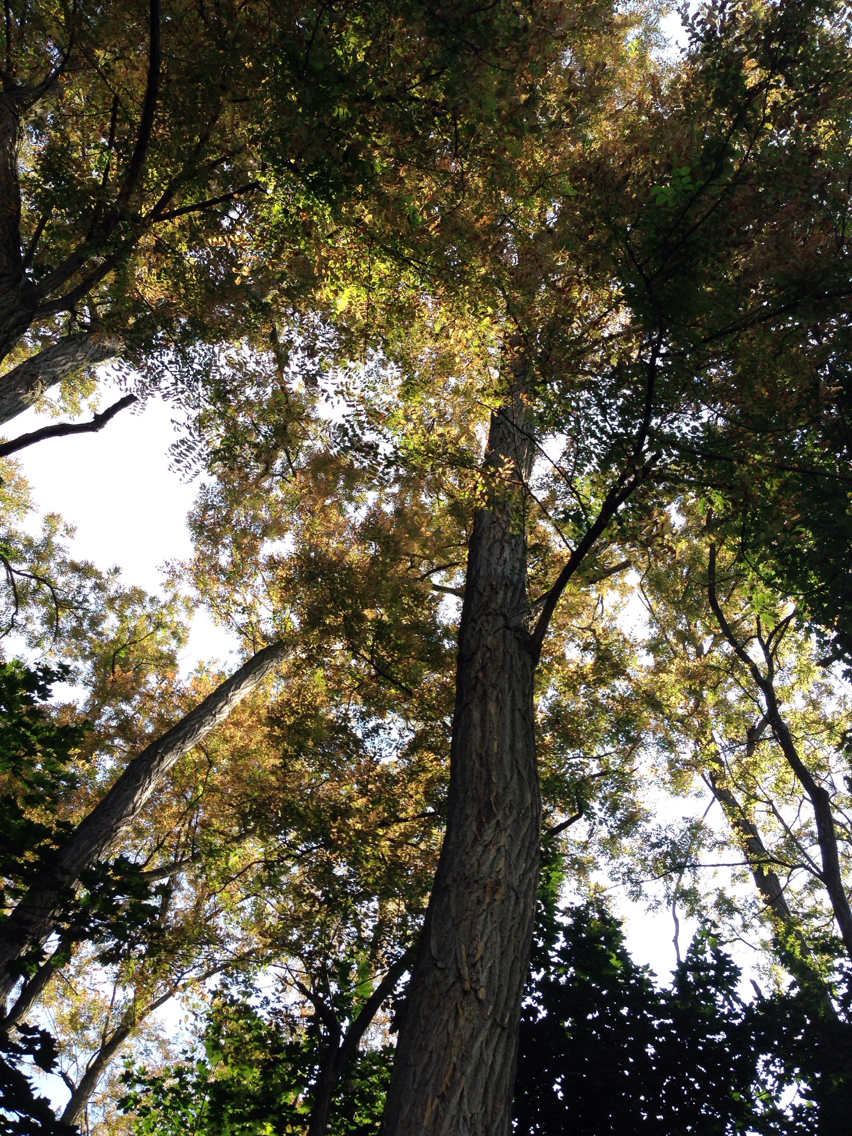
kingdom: Plantae
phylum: Tracheophyta
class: Magnoliopsida
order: Fabales
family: Fabaceae
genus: Robinia
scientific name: Robinia pseudoacacia
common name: Black locust
